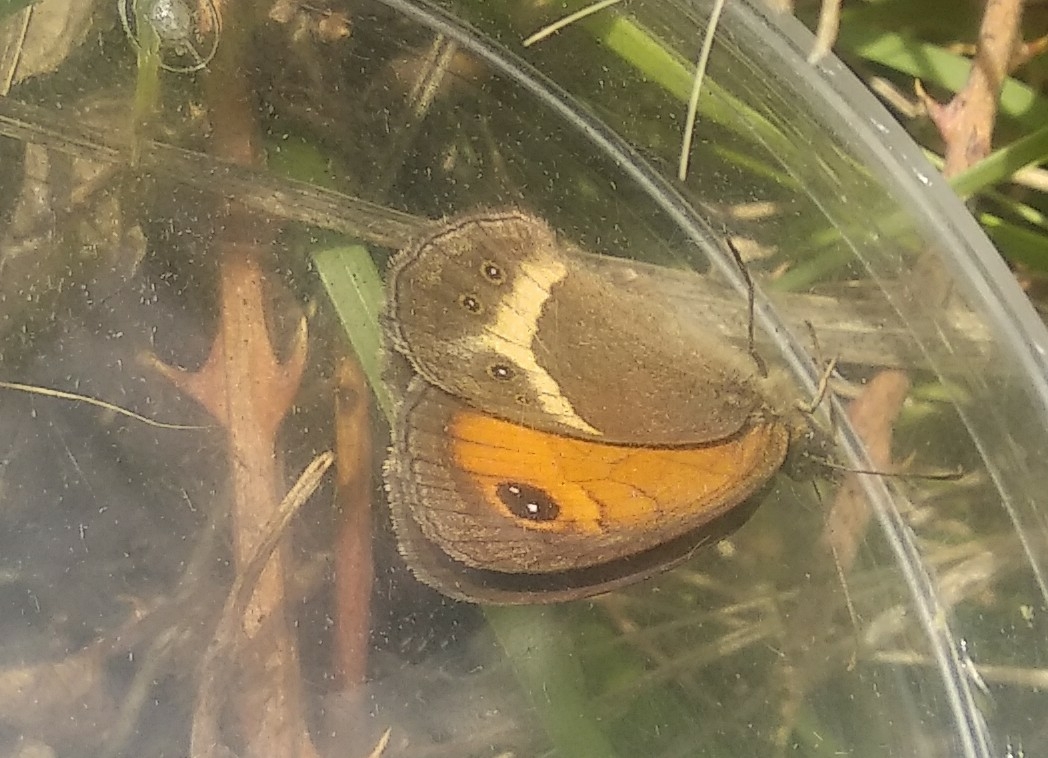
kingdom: Animalia
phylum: Arthropoda
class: Insecta
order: Lepidoptera
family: Nymphalidae
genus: Pyronia
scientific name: Pyronia bathseba
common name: Spanish gatekeeper
